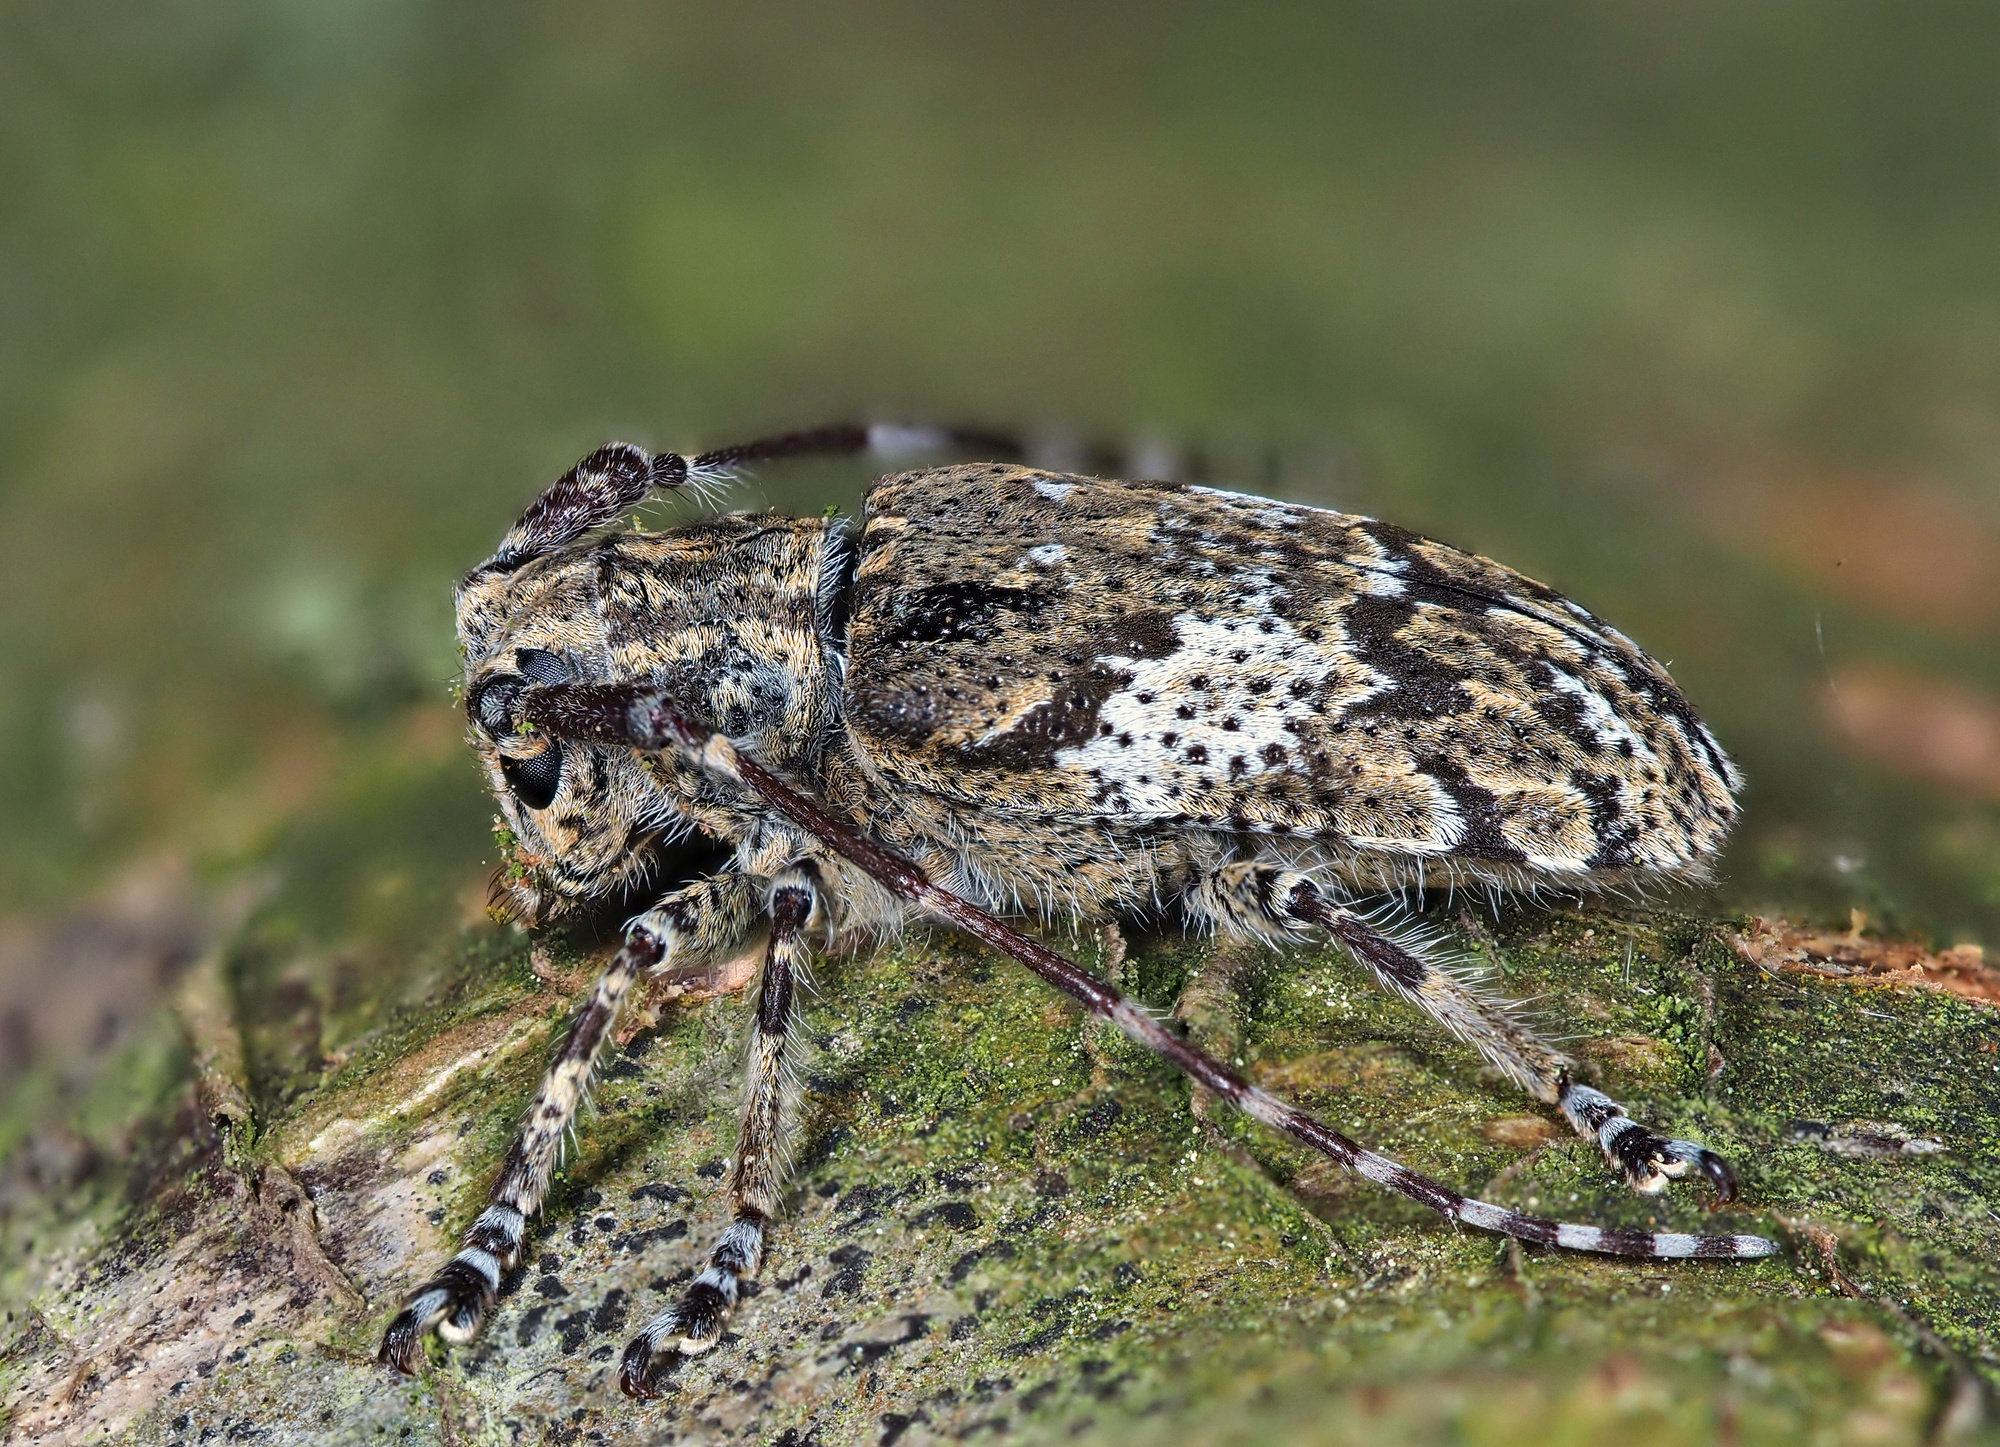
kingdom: Animalia
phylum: Arthropoda
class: Insecta
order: Coleoptera
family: Cerambycidae
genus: Mesosa
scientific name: Mesosa nebulosa
